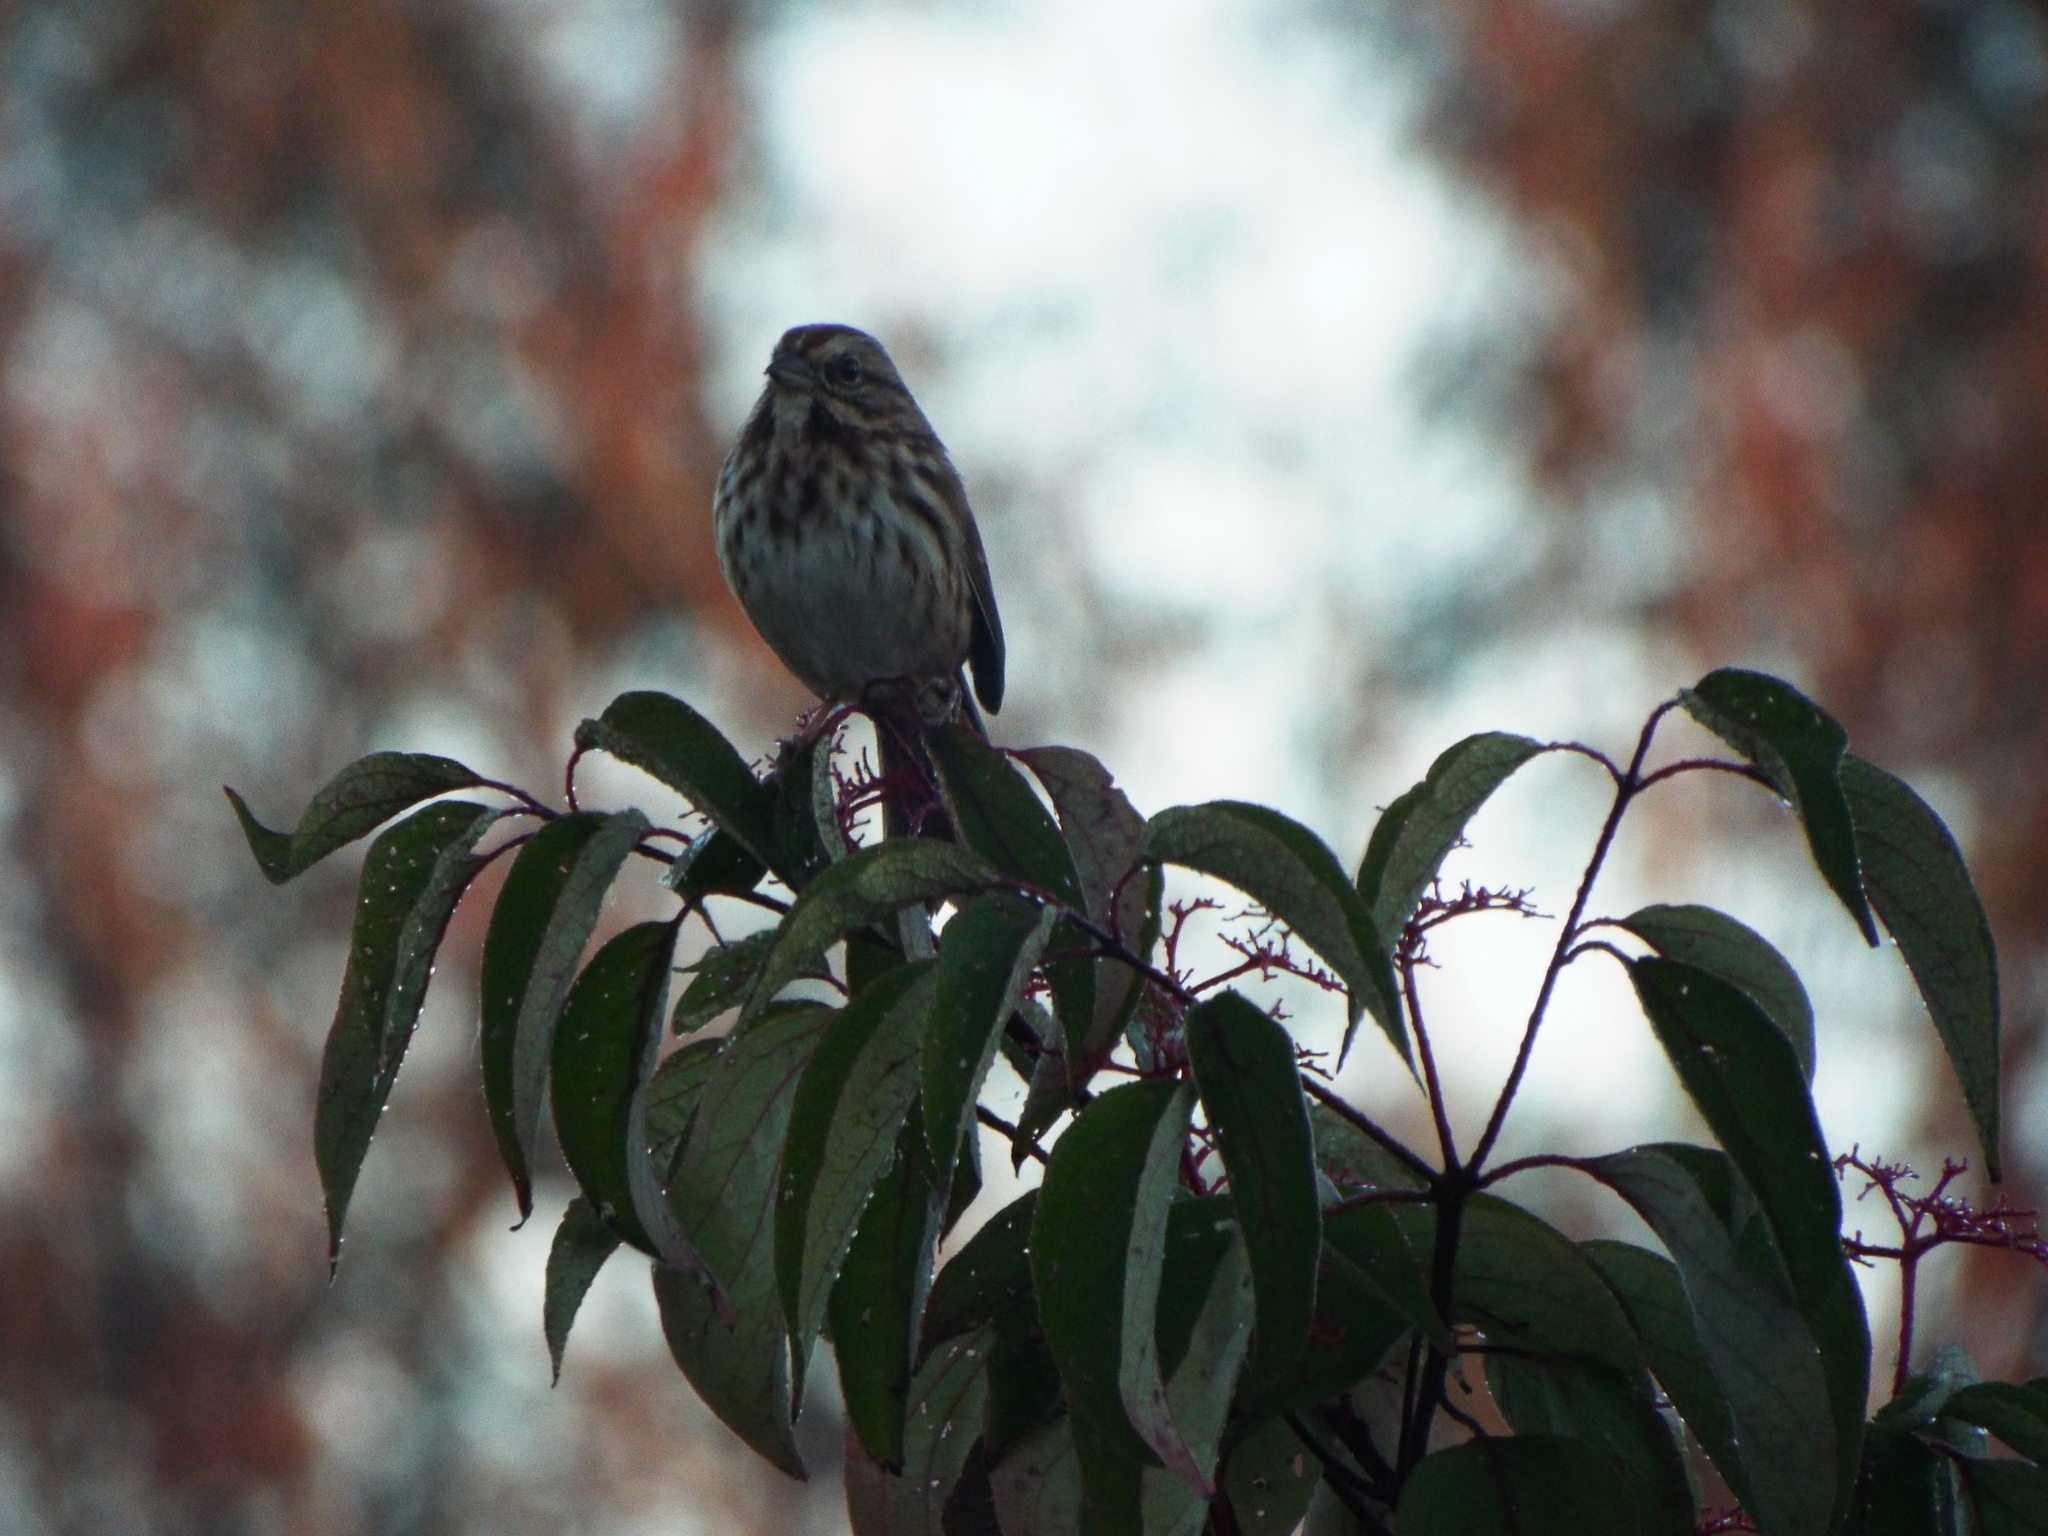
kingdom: Animalia
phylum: Chordata
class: Aves
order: Passeriformes
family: Passerellidae
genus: Melospiza
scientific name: Melospiza melodia
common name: Song sparrow
